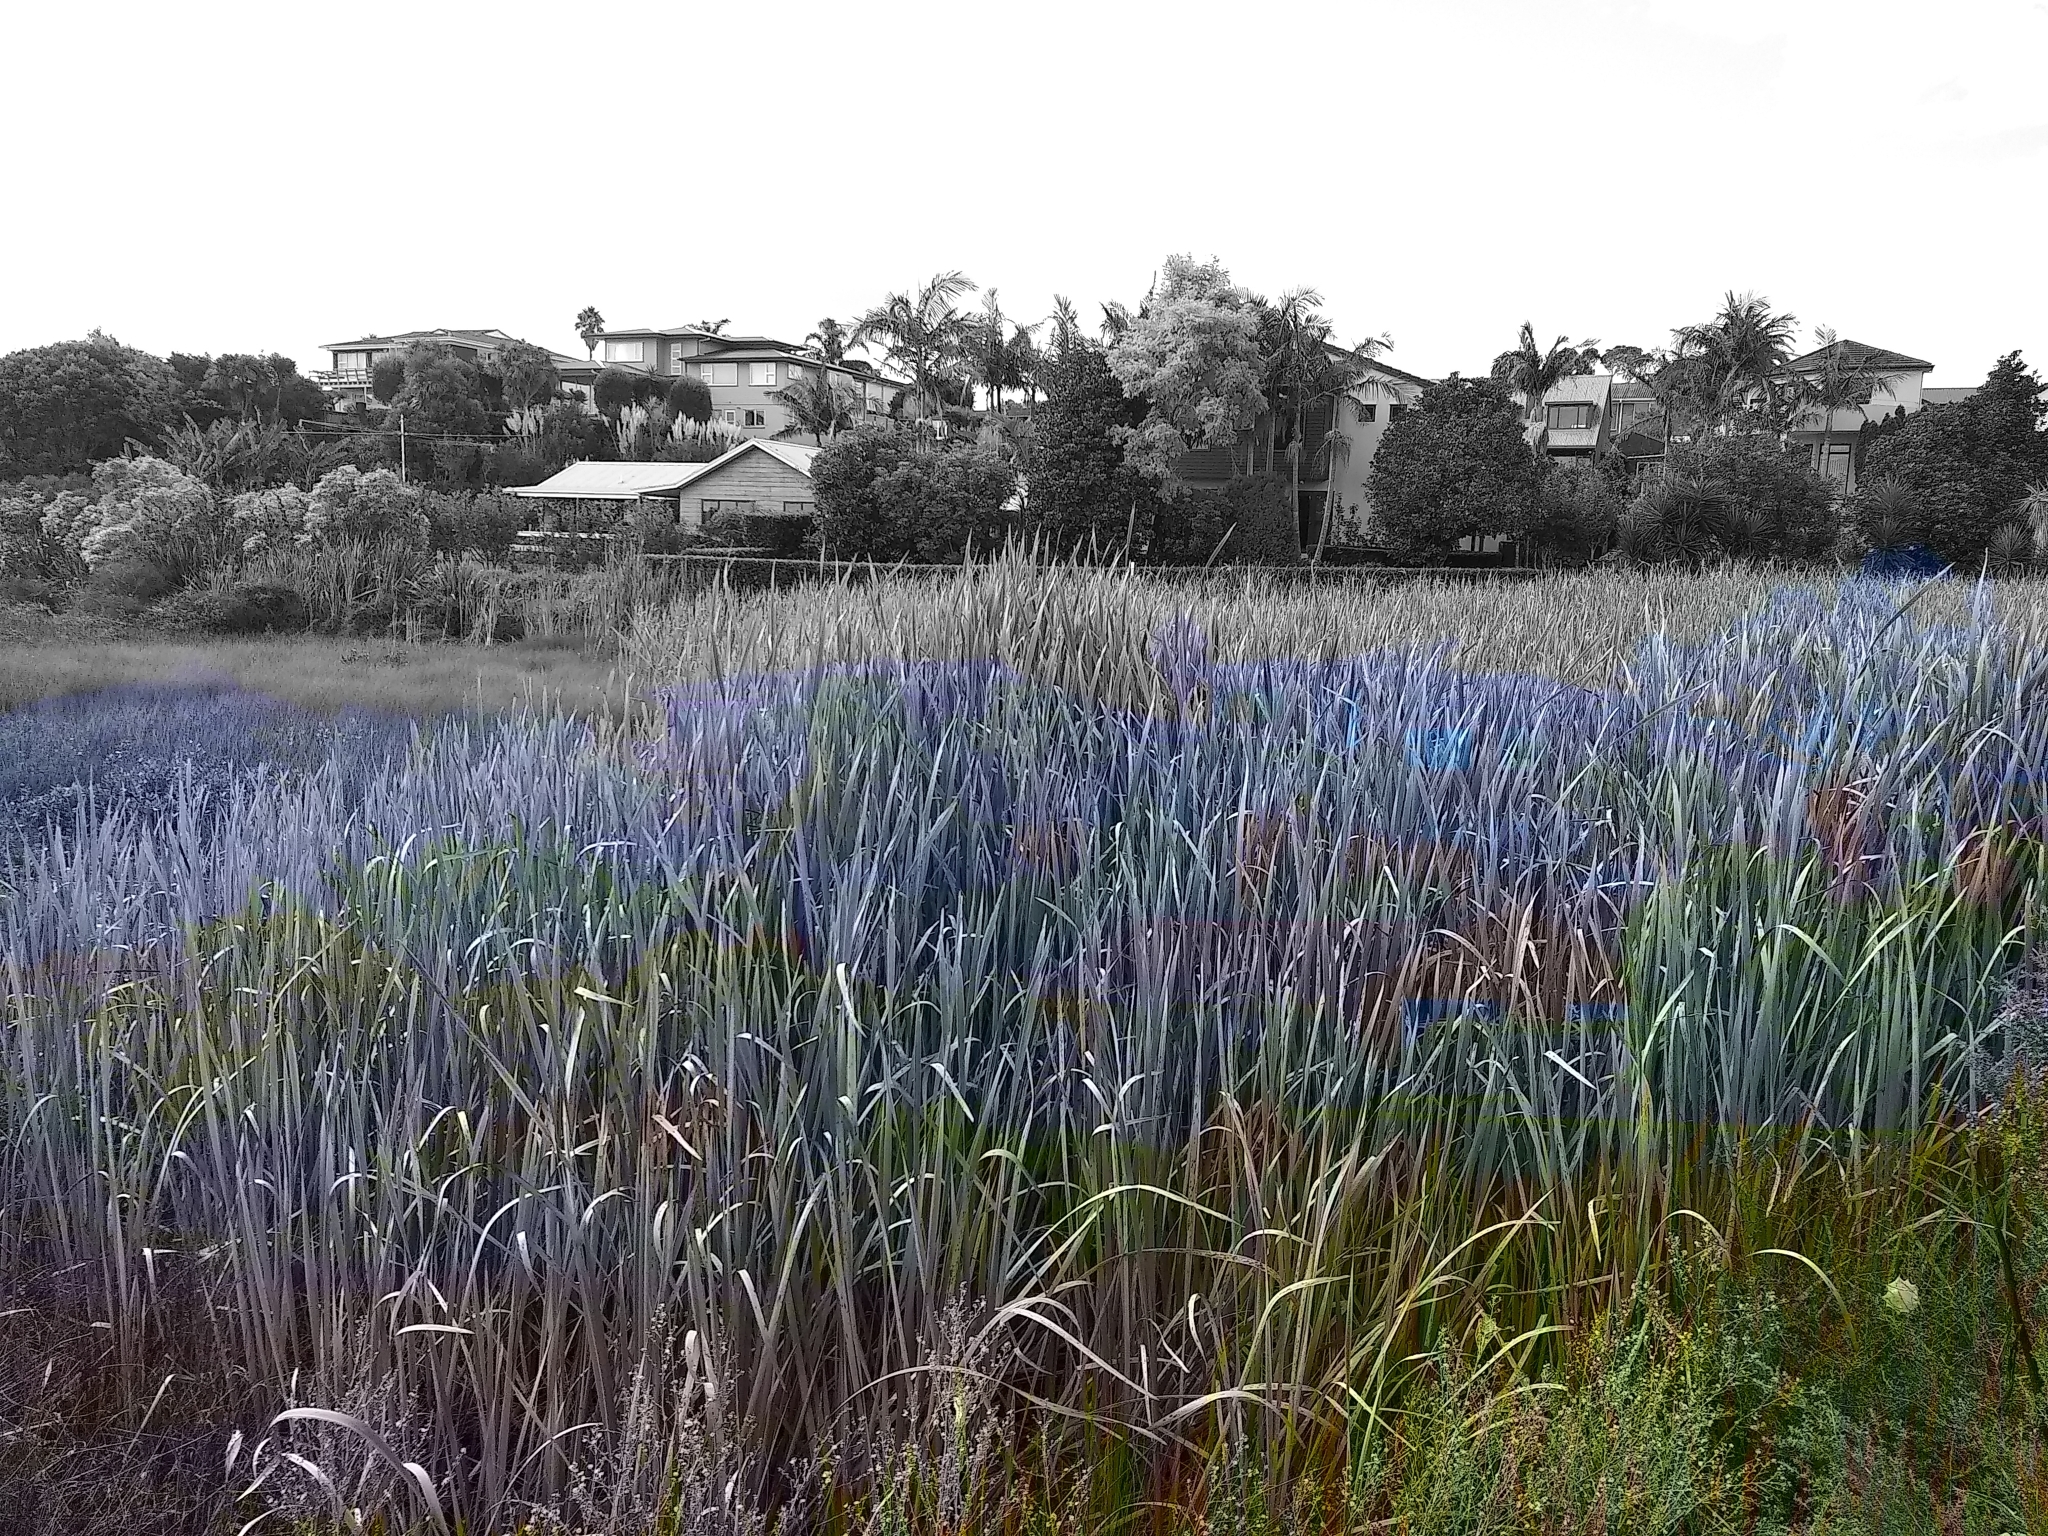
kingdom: Plantae
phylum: Tracheophyta
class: Liliopsida
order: Poales
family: Typhaceae
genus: Typha
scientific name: Typha orientalis
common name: Bullrush
